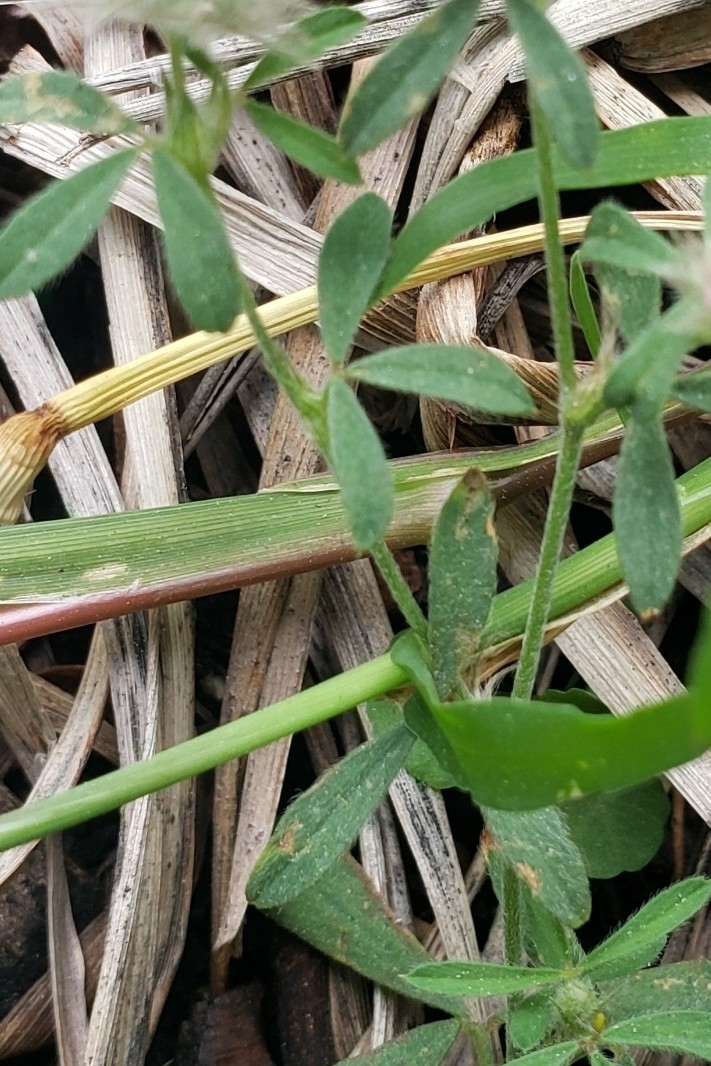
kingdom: Plantae
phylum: Tracheophyta
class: Magnoliopsida
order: Fabales
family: Fabaceae
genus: Trifolium
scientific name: Trifolium arvense
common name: Hare's-foot clover
